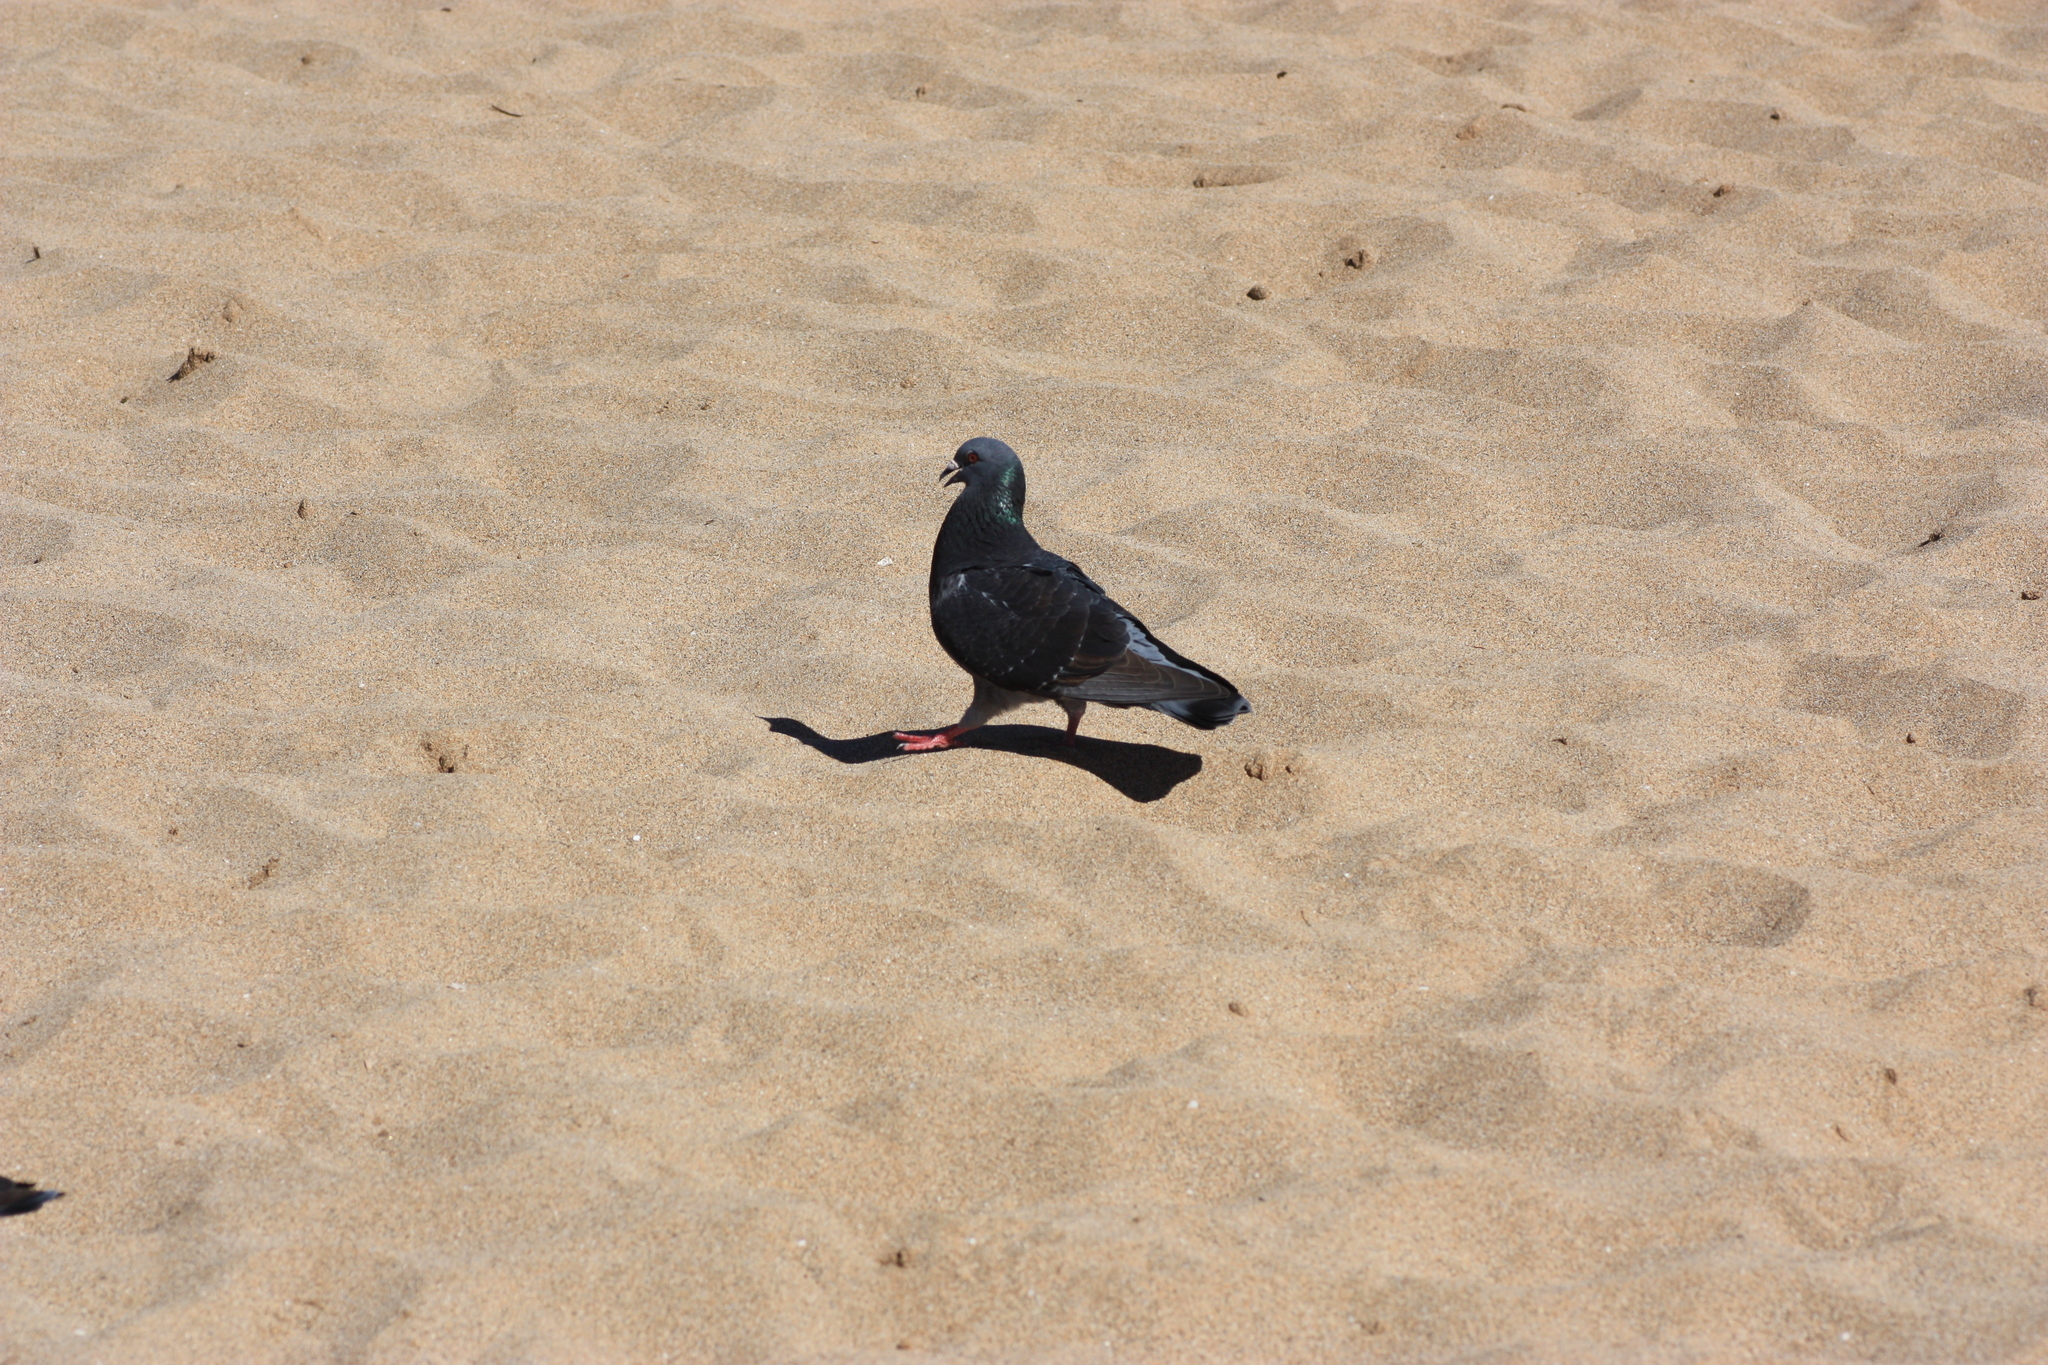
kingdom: Animalia
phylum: Chordata
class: Aves
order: Columbiformes
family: Columbidae
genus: Columba
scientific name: Columba livia
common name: Rock pigeon
